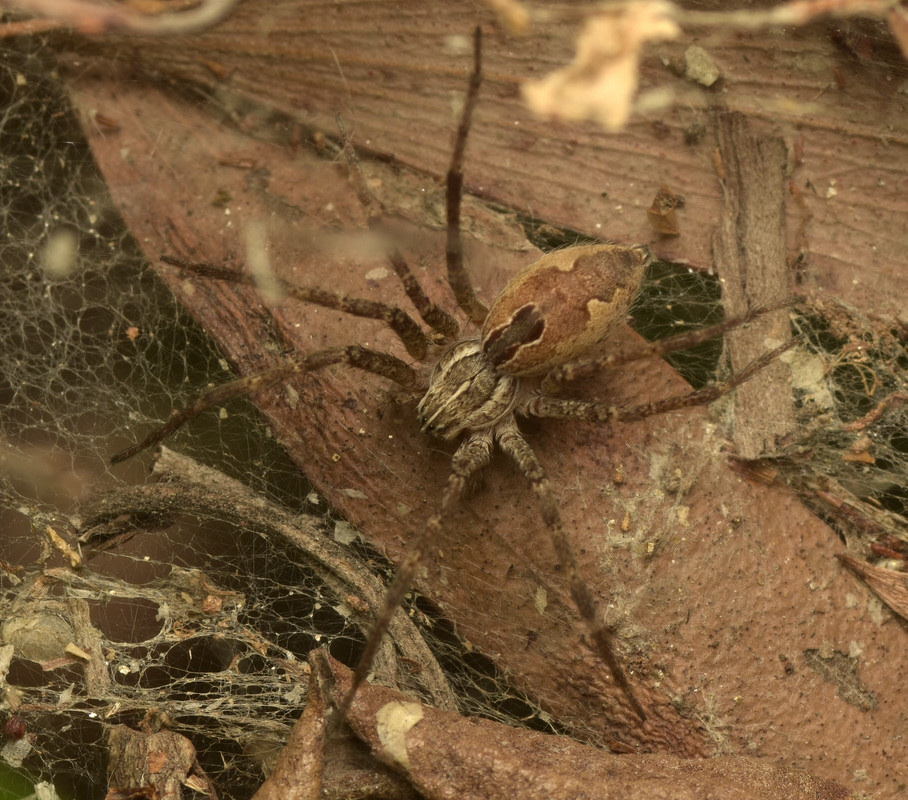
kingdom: Animalia
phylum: Arthropoda
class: Arachnida
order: Araneae
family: Pisauridae
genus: Dendrolycosa
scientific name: Dendrolycosa icadia
